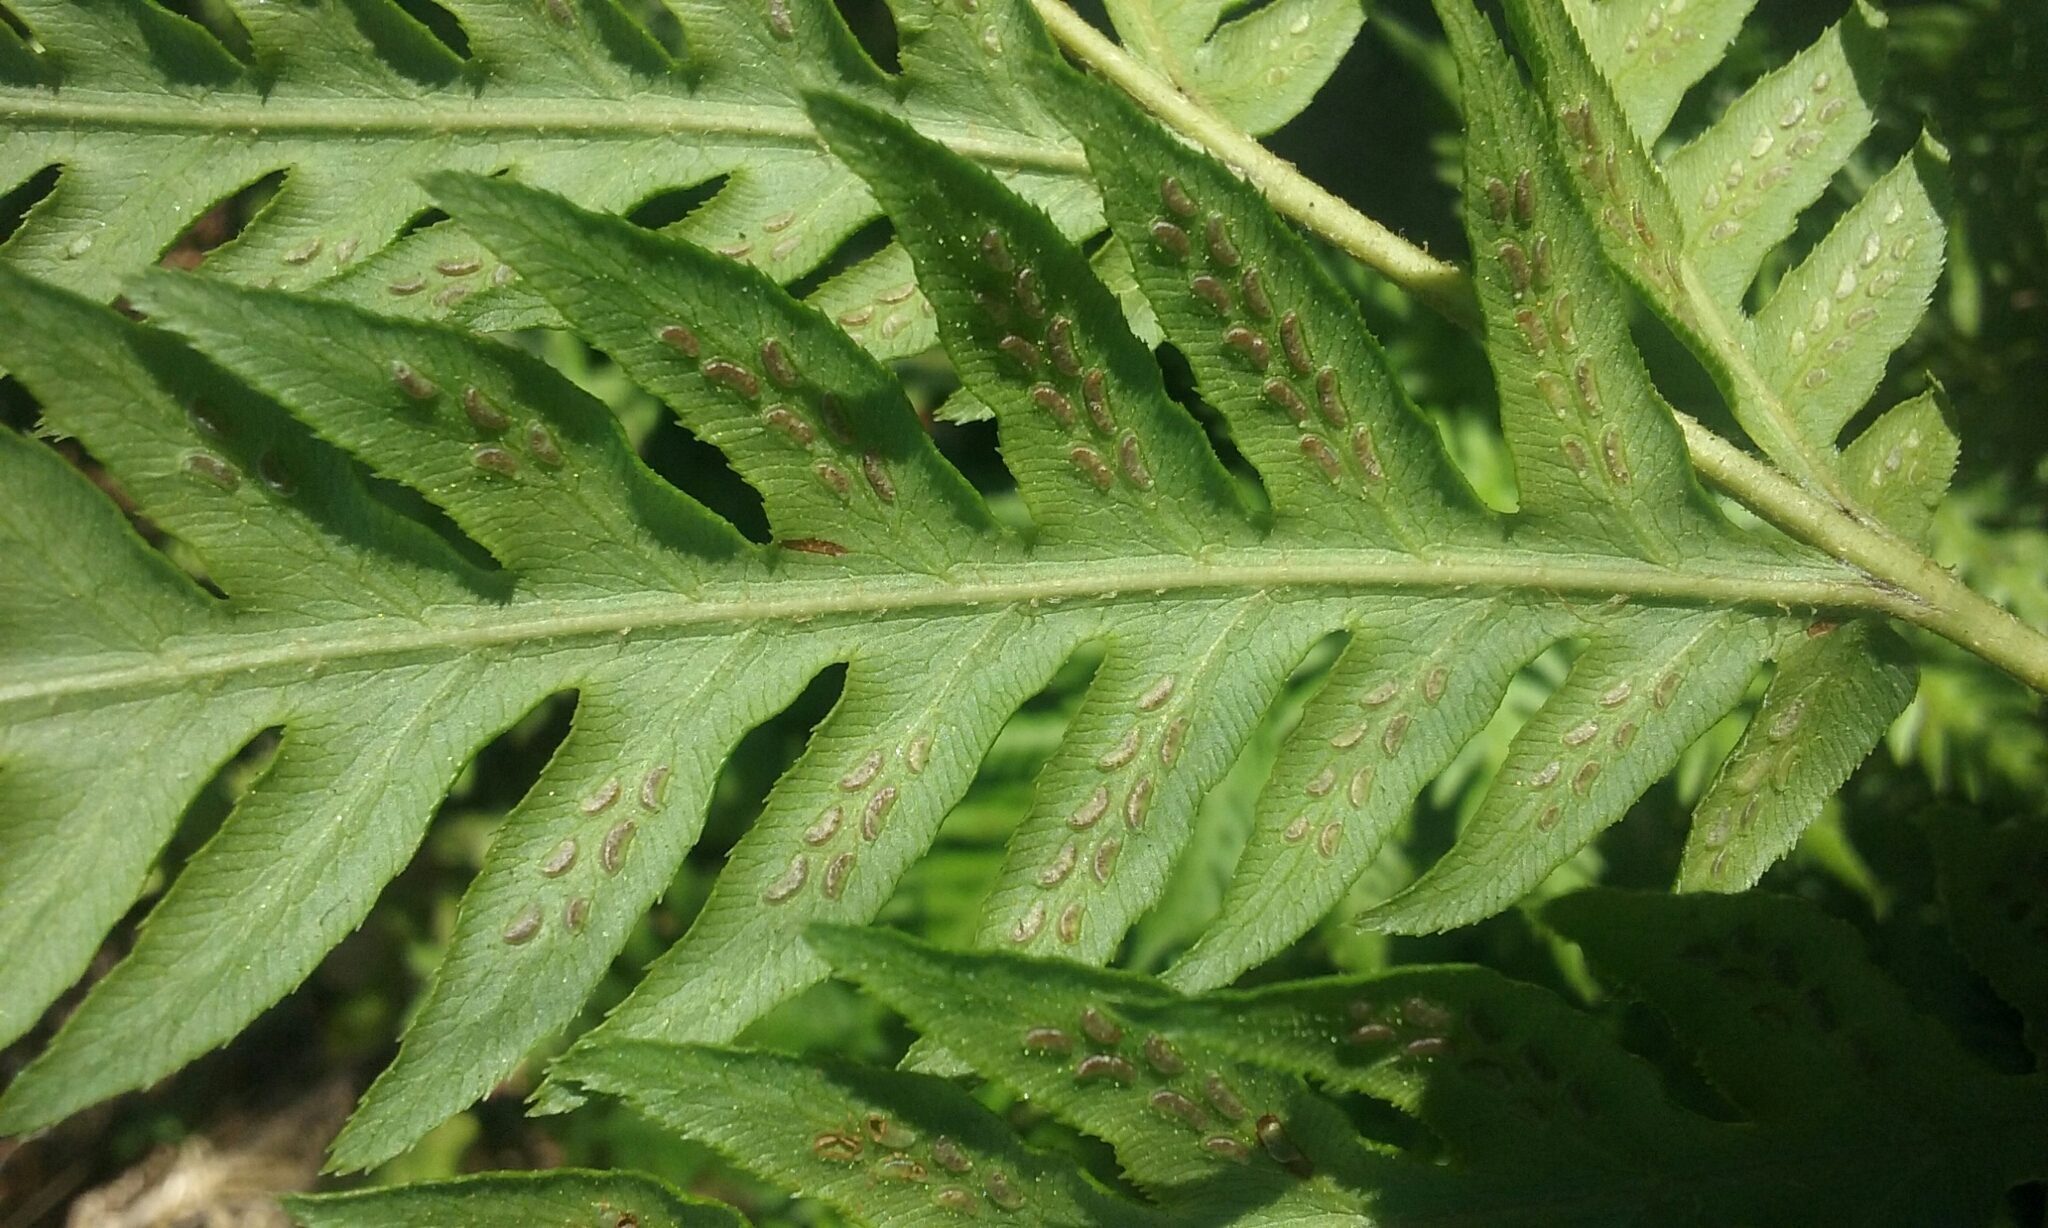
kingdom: Plantae
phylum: Tracheophyta
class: Polypodiopsida
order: Polypodiales
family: Blechnaceae
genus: Woodwardia
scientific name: Woodwardia fimbriata
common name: Giant chain fern
